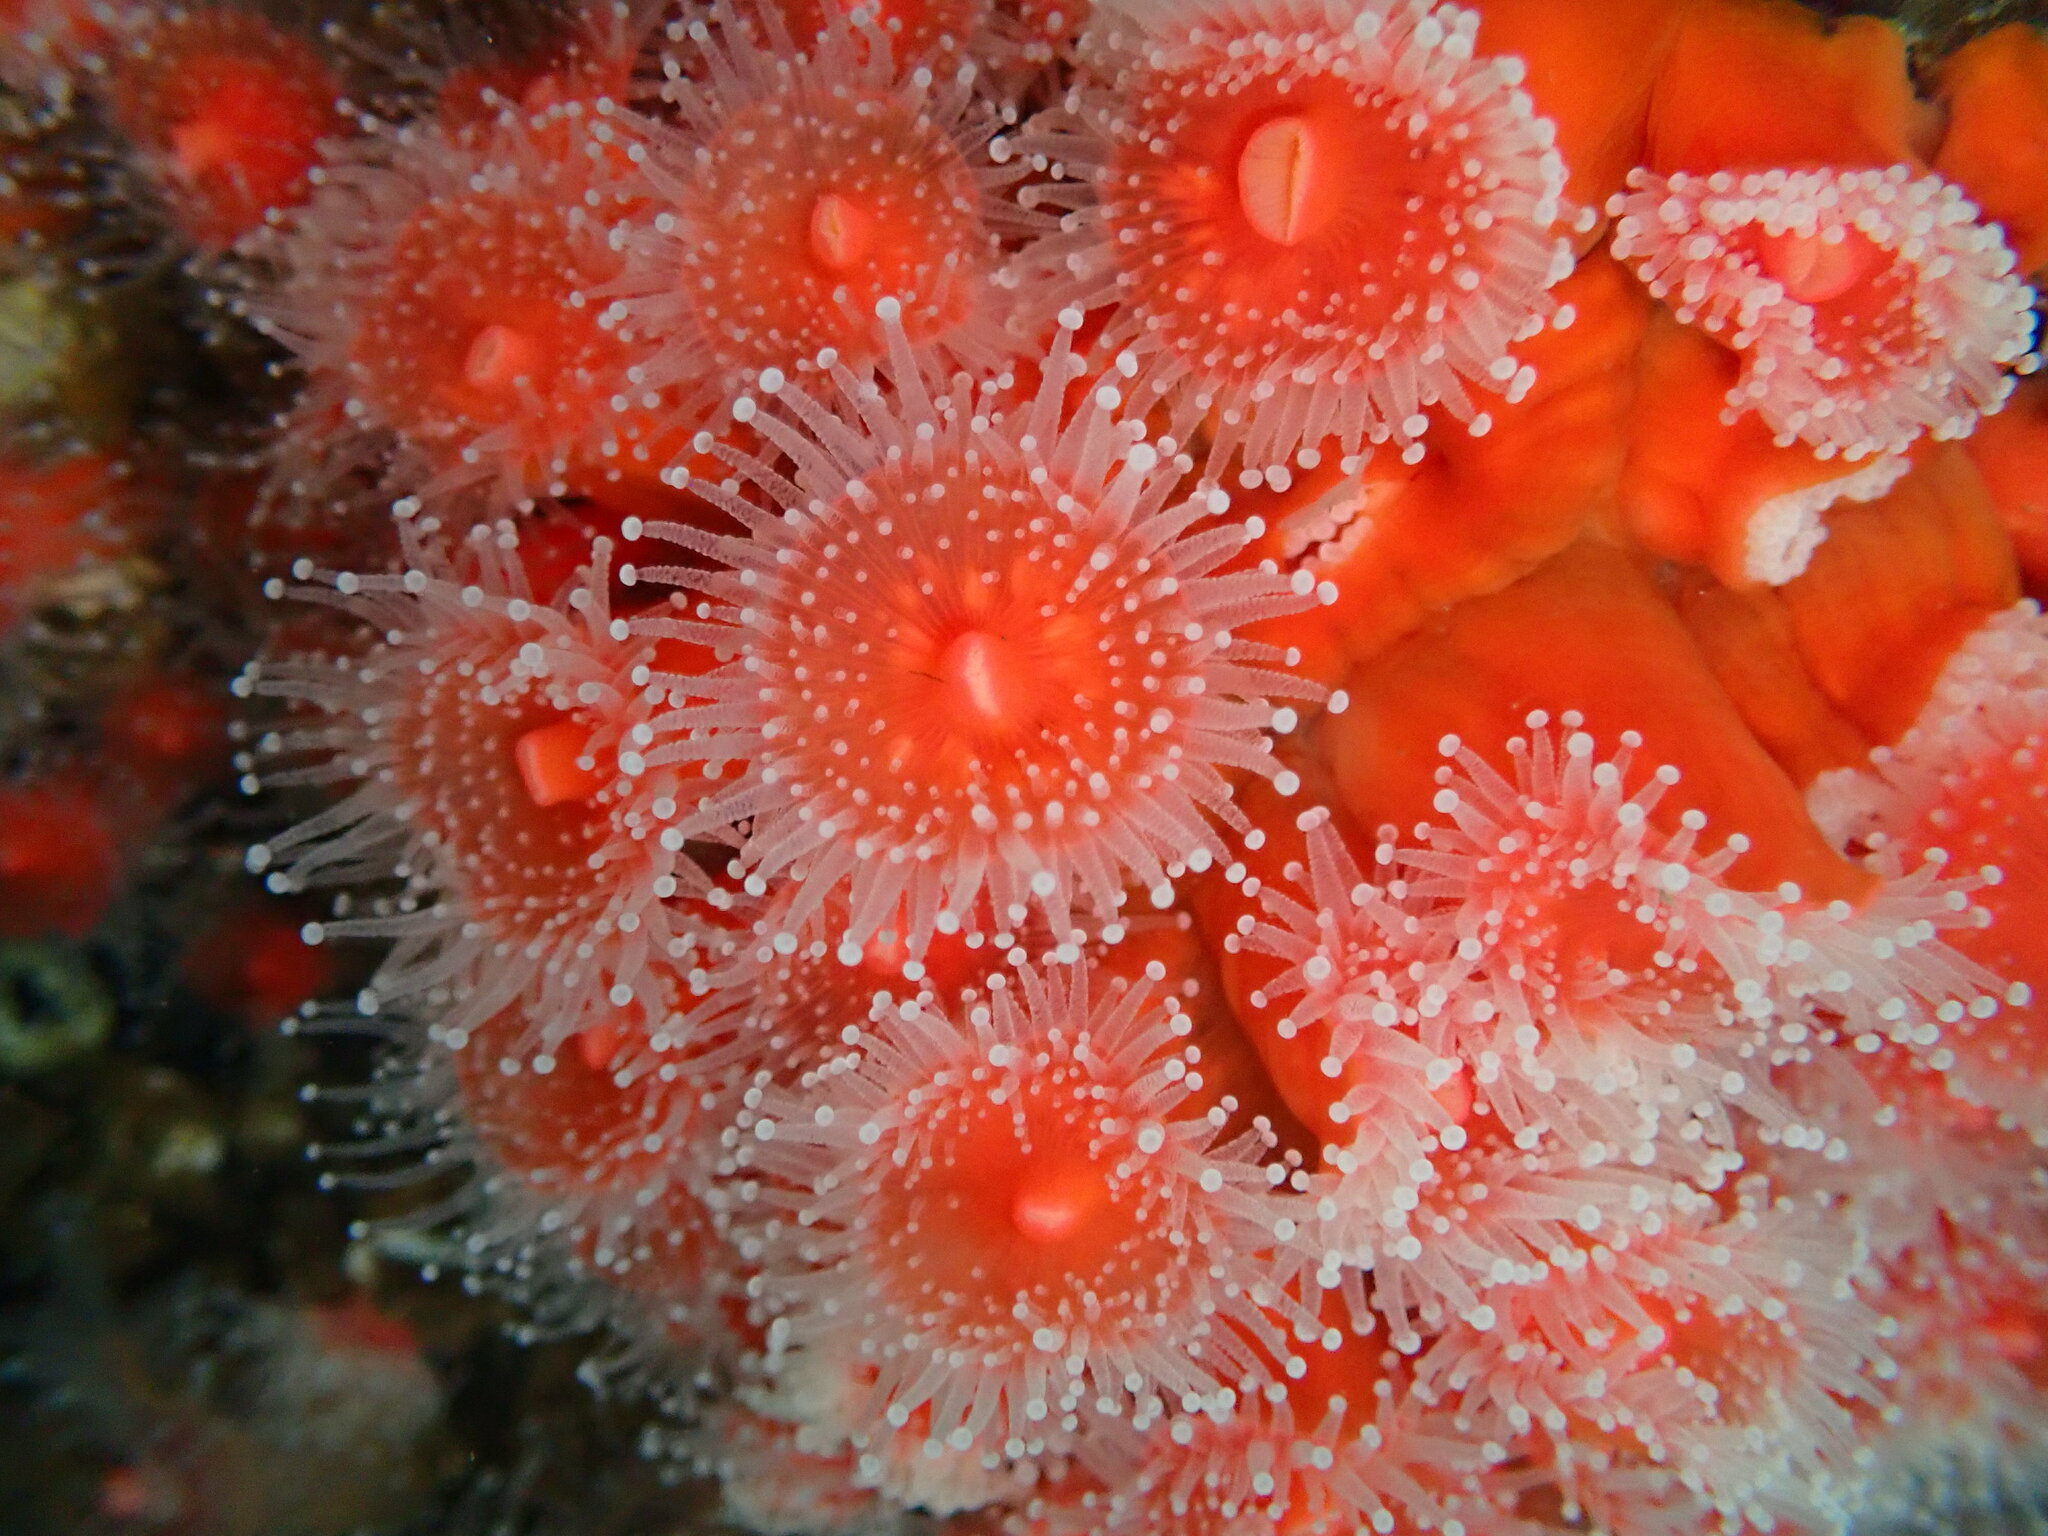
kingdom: Animalia
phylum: Cnidaria
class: Anthozoa
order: Corallimorpharia
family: Corallimorphidae
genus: Corynactis
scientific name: Corynactis californica
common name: Strawberry corallimorpharian
